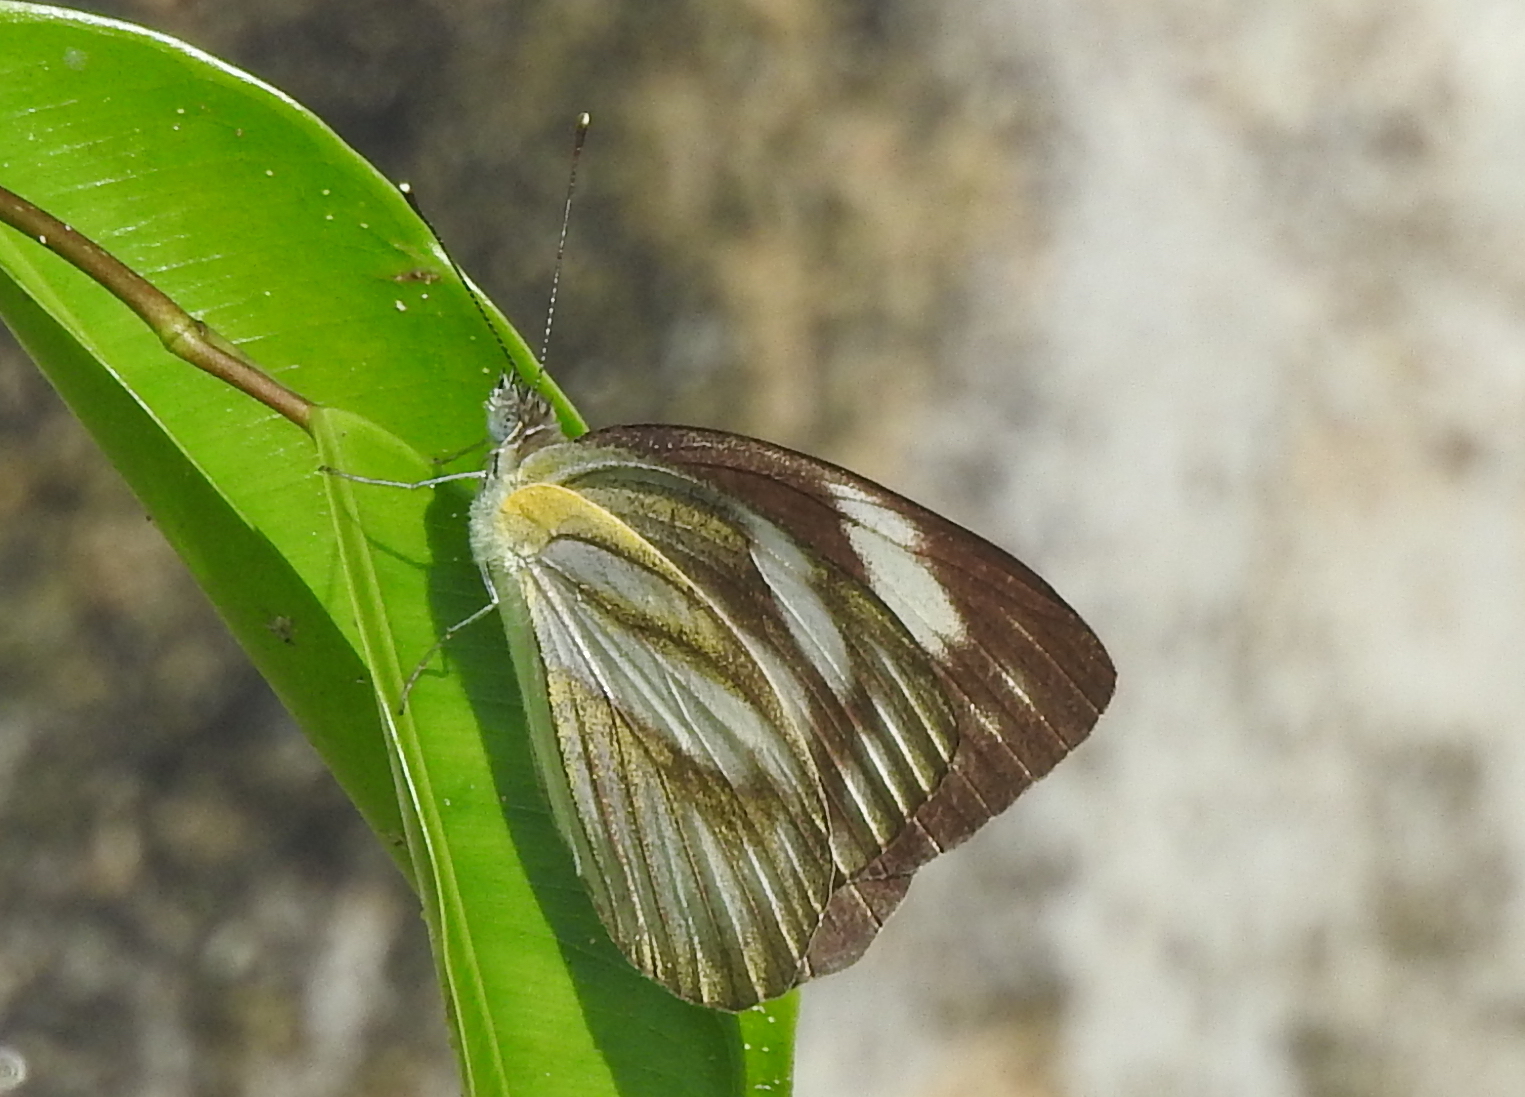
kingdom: Animalia
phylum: Arthropoda
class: Insecta
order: Lepidoptera
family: Pieridae
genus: Appias
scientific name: Appias libythea
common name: Striped albatross
